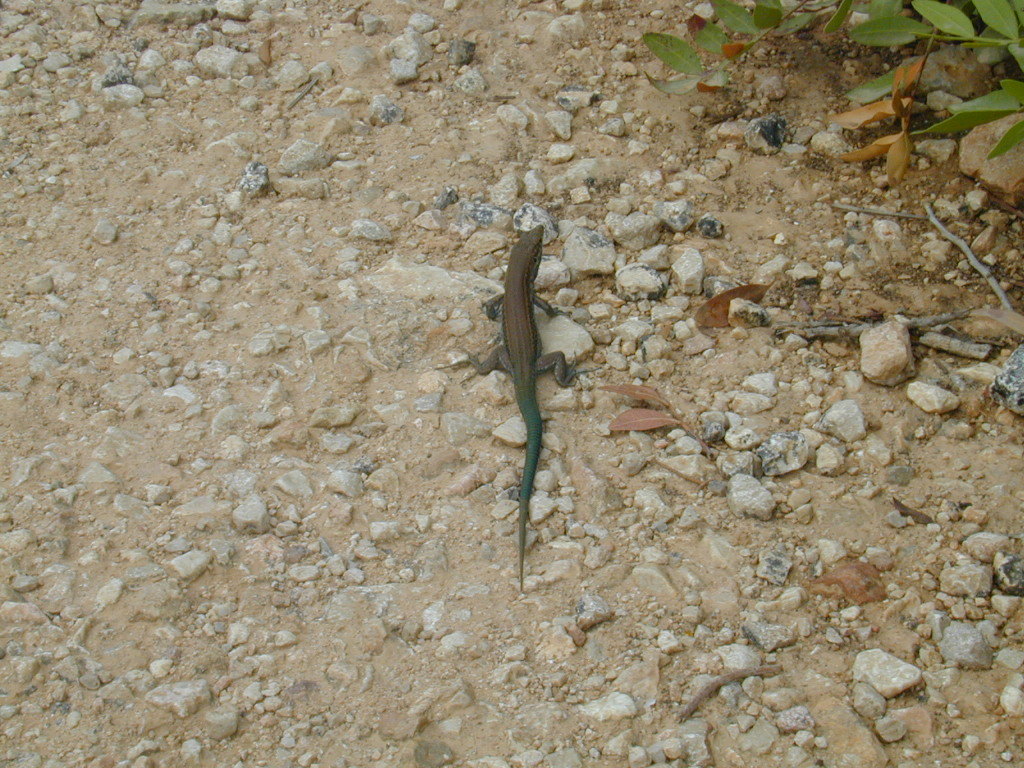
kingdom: Animalia
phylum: Chordata
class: Squamata
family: Lacertidae
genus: Podarcis
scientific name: Podarcis lilfordi
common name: Belearic lizard
